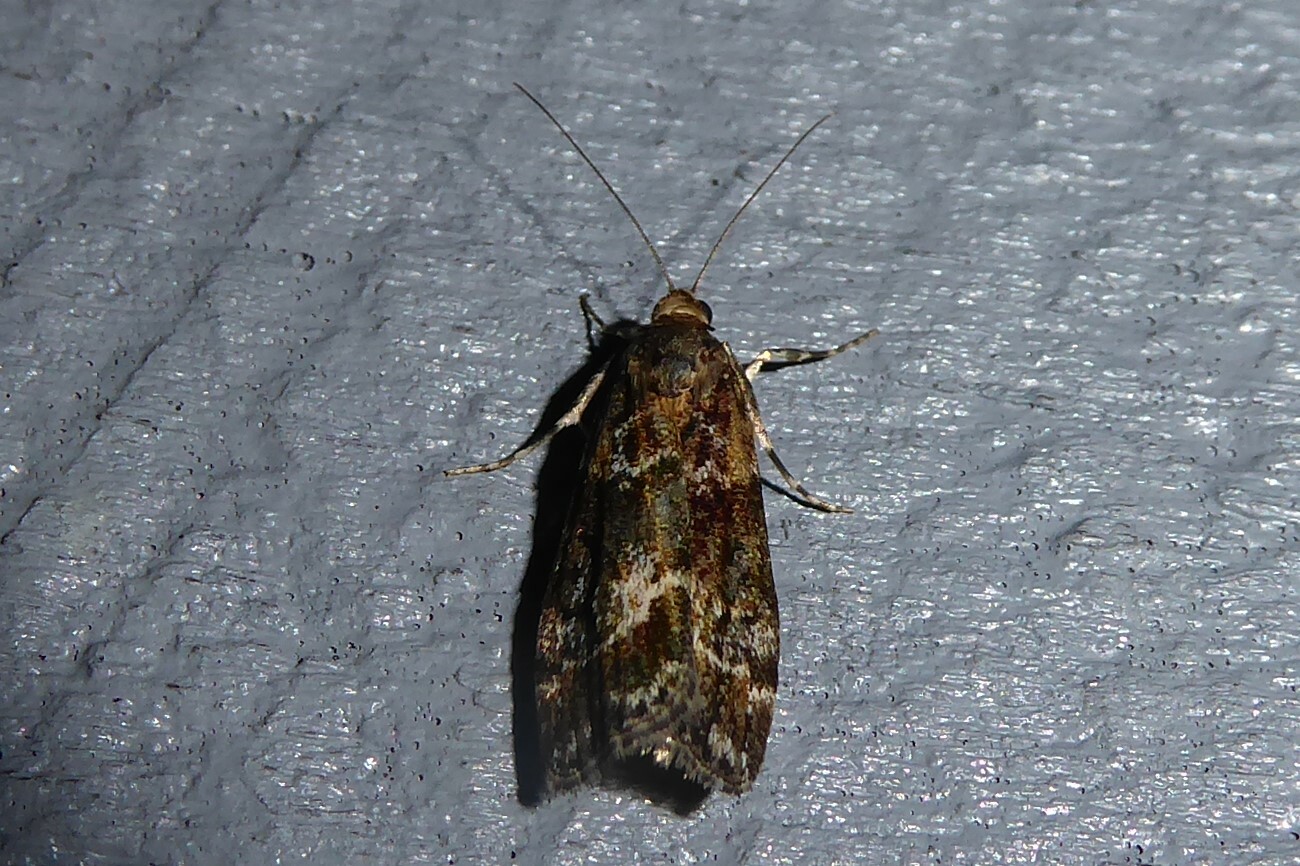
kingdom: Animalia
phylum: Arthropoda
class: Insecta
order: Lepidoptera
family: Crambidae
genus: Eudonia
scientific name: Eudonia legnota
